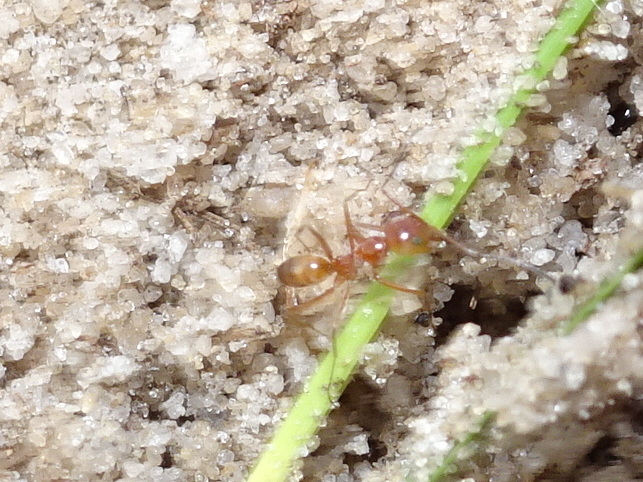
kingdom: Animalia
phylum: Arthropoda
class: Insecta
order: Hymenoptera
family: Formicidae
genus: Dorymyrmex
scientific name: Dorymyrmex bureni
